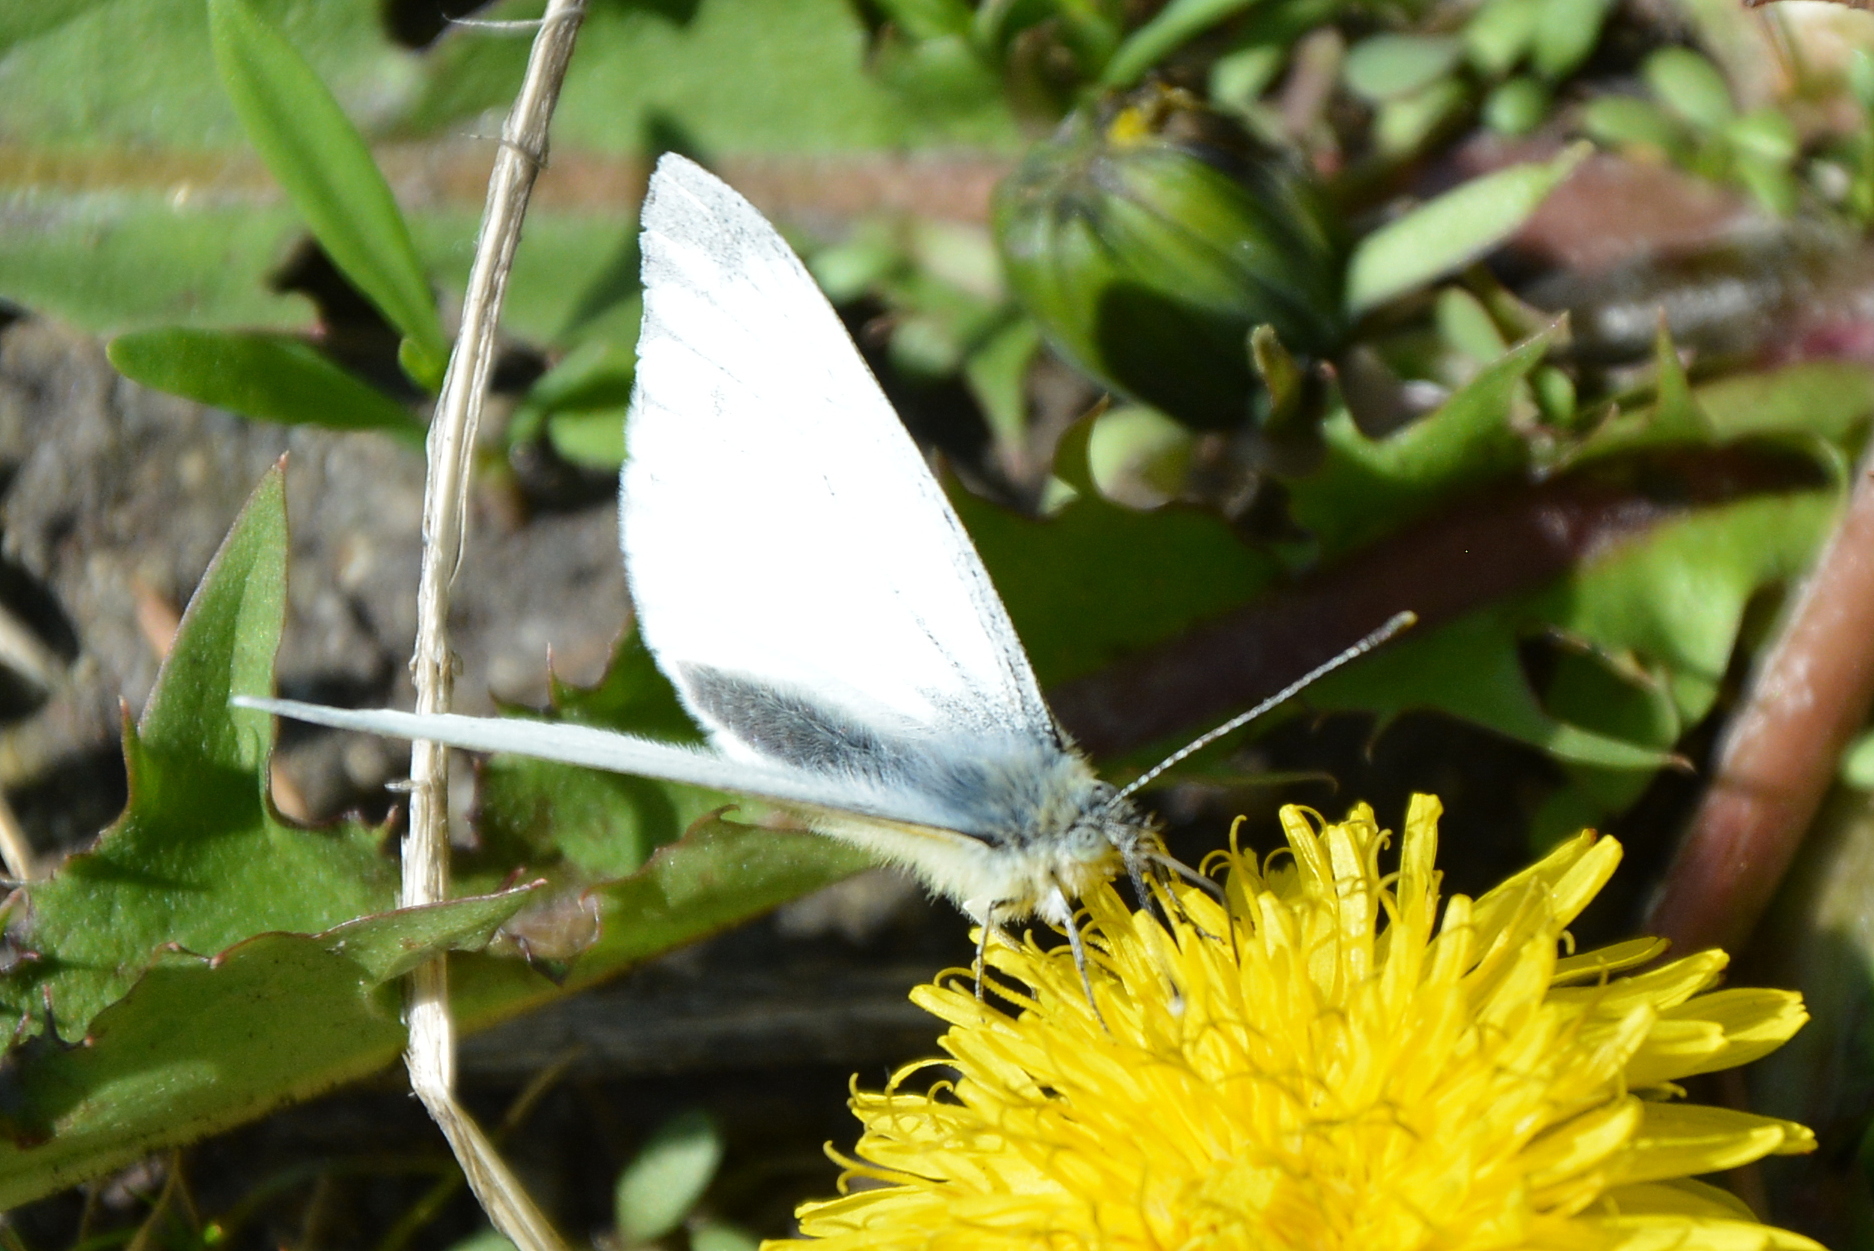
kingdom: Animalia
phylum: Arthropoda
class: Insecta
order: Lepidoptera
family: Pieridae
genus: Pieris
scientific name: Pieris napi
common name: Green-veined white
